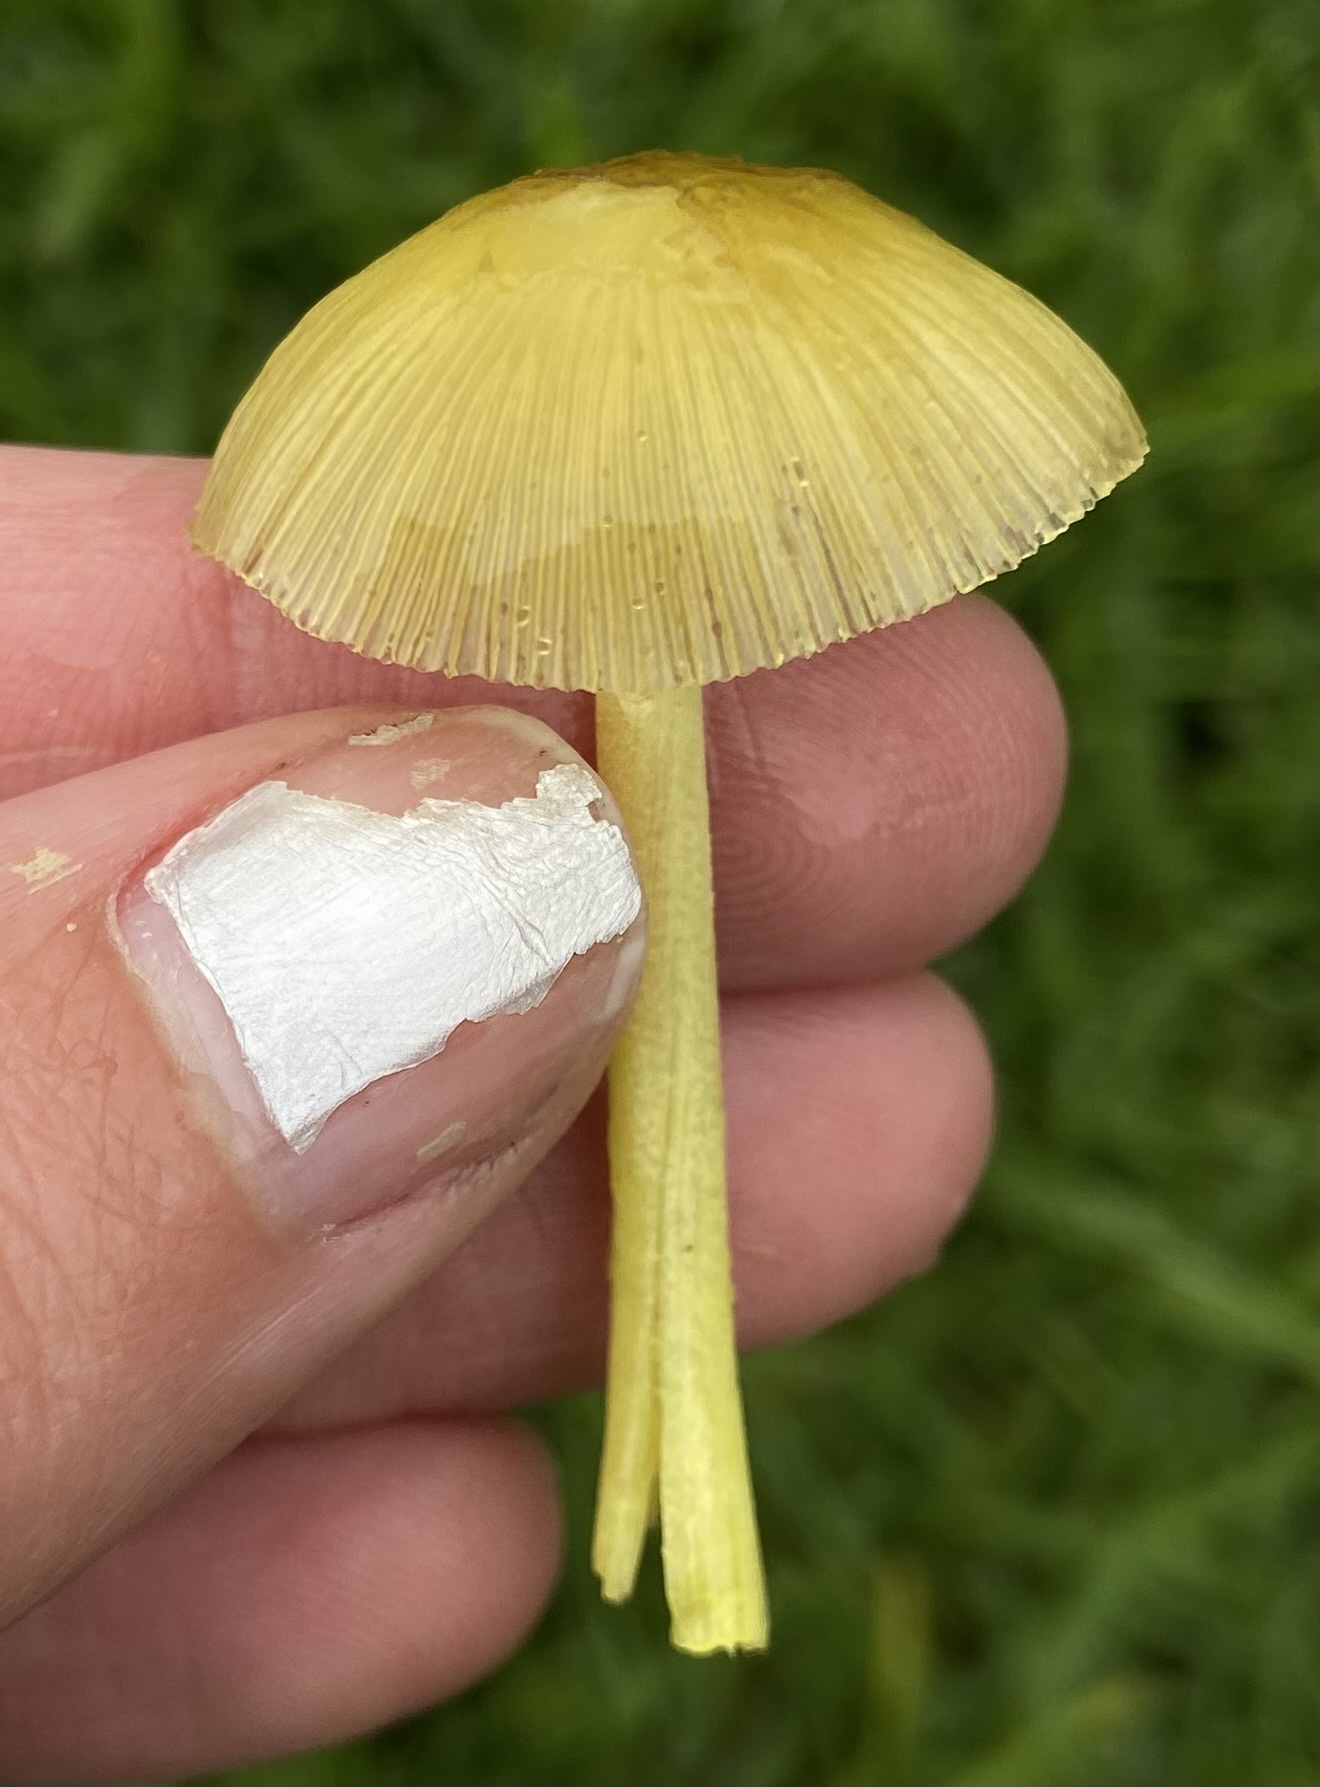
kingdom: Fungi
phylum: Basidiomycota
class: Agaricomycetes
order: Agaricales
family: Bolbitiaceae
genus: Bolbitius
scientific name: Bolbitius titubans
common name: Yellow fieldcap
